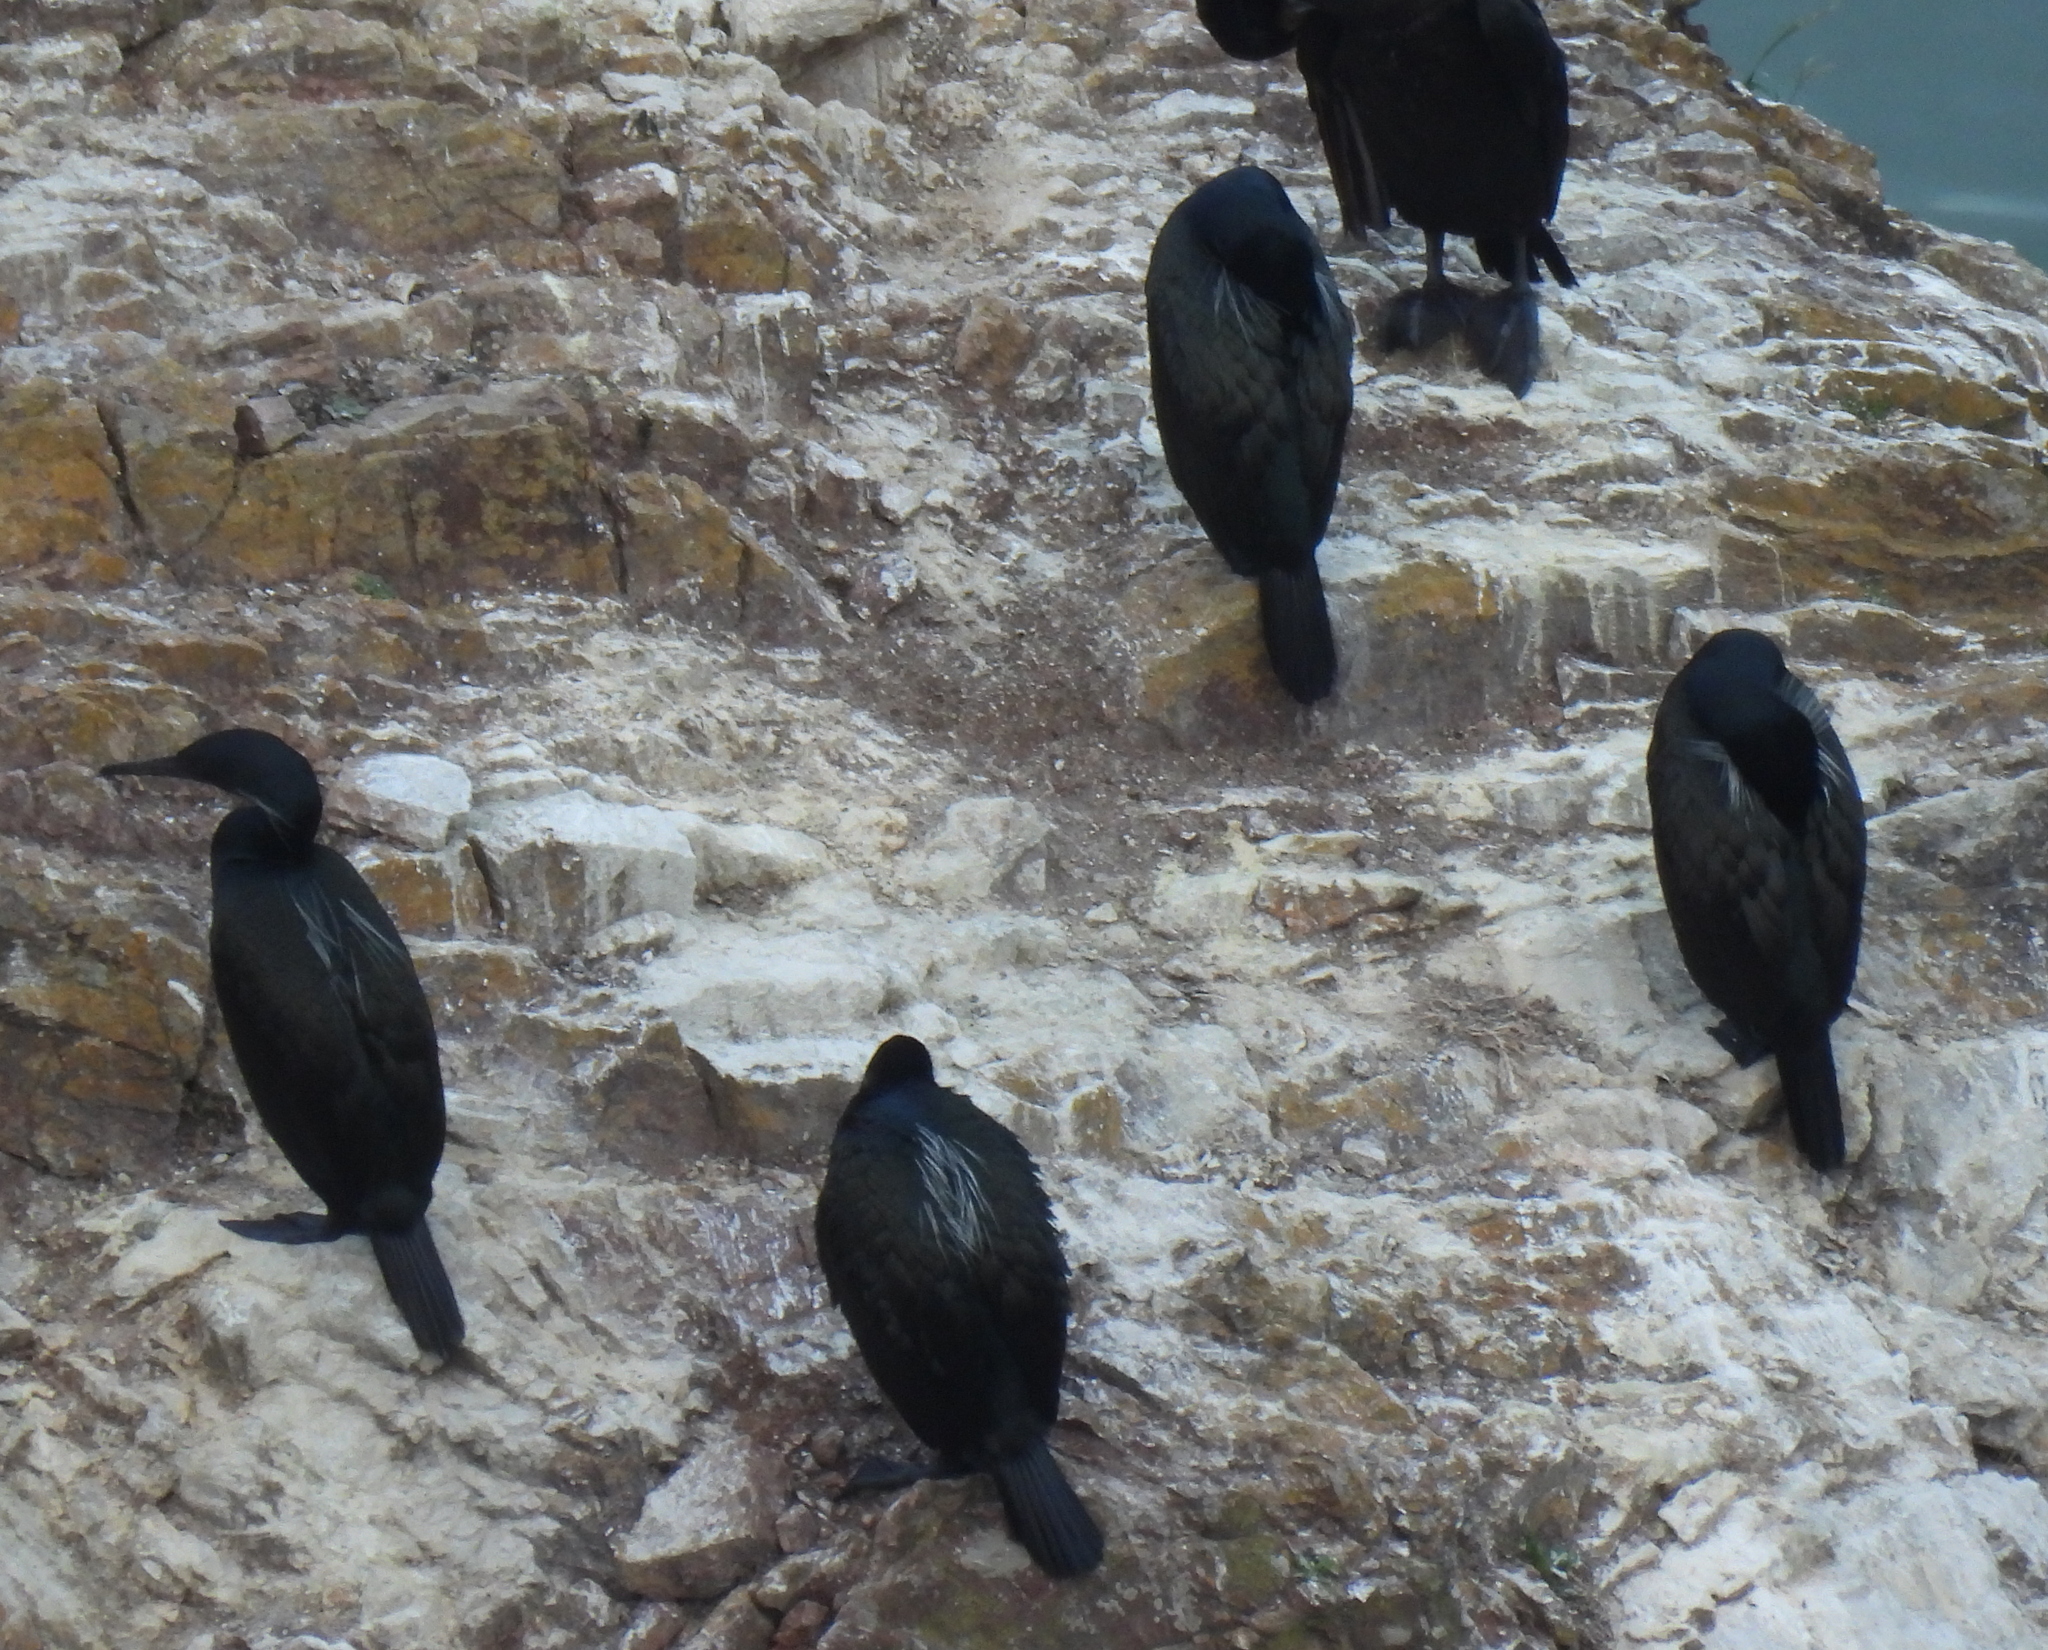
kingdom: Animalia
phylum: Chordata
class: Aves
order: Suliformes
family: Phalacrocoracidae
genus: Urile
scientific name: Urile penicillatus
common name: Brandt's cormorant
